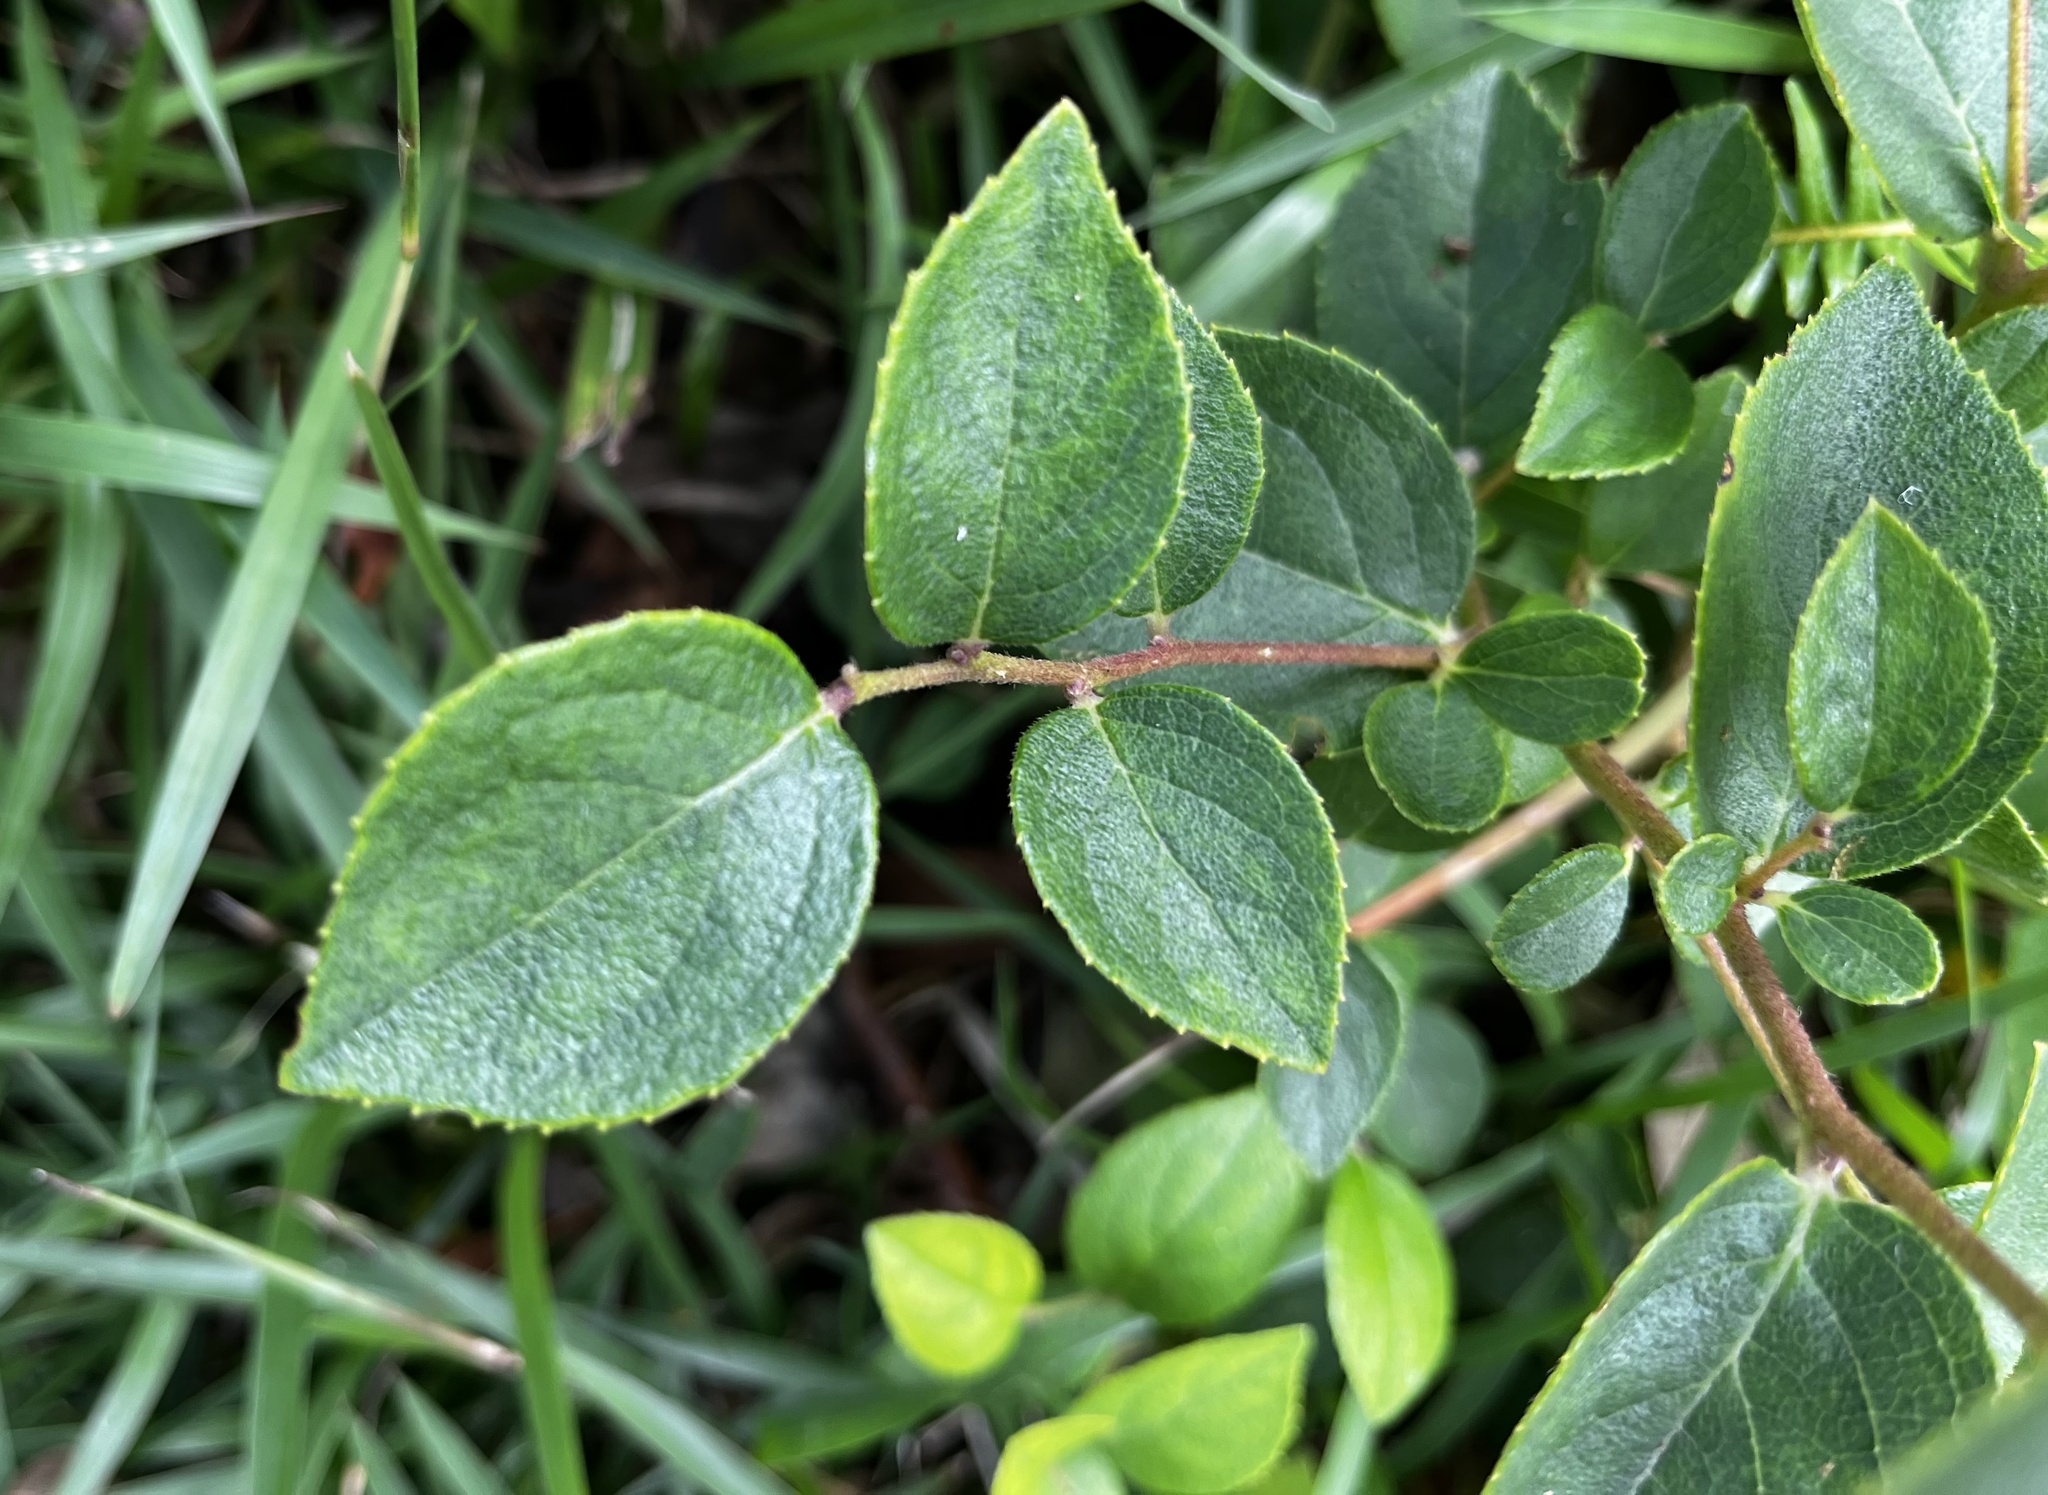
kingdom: Plantae
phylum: Tracheophyta
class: Magnoliopsida
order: Ericales
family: Symplocaceae
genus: Symplocos
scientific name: Symplocos paniculata
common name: Sapphire-berry
